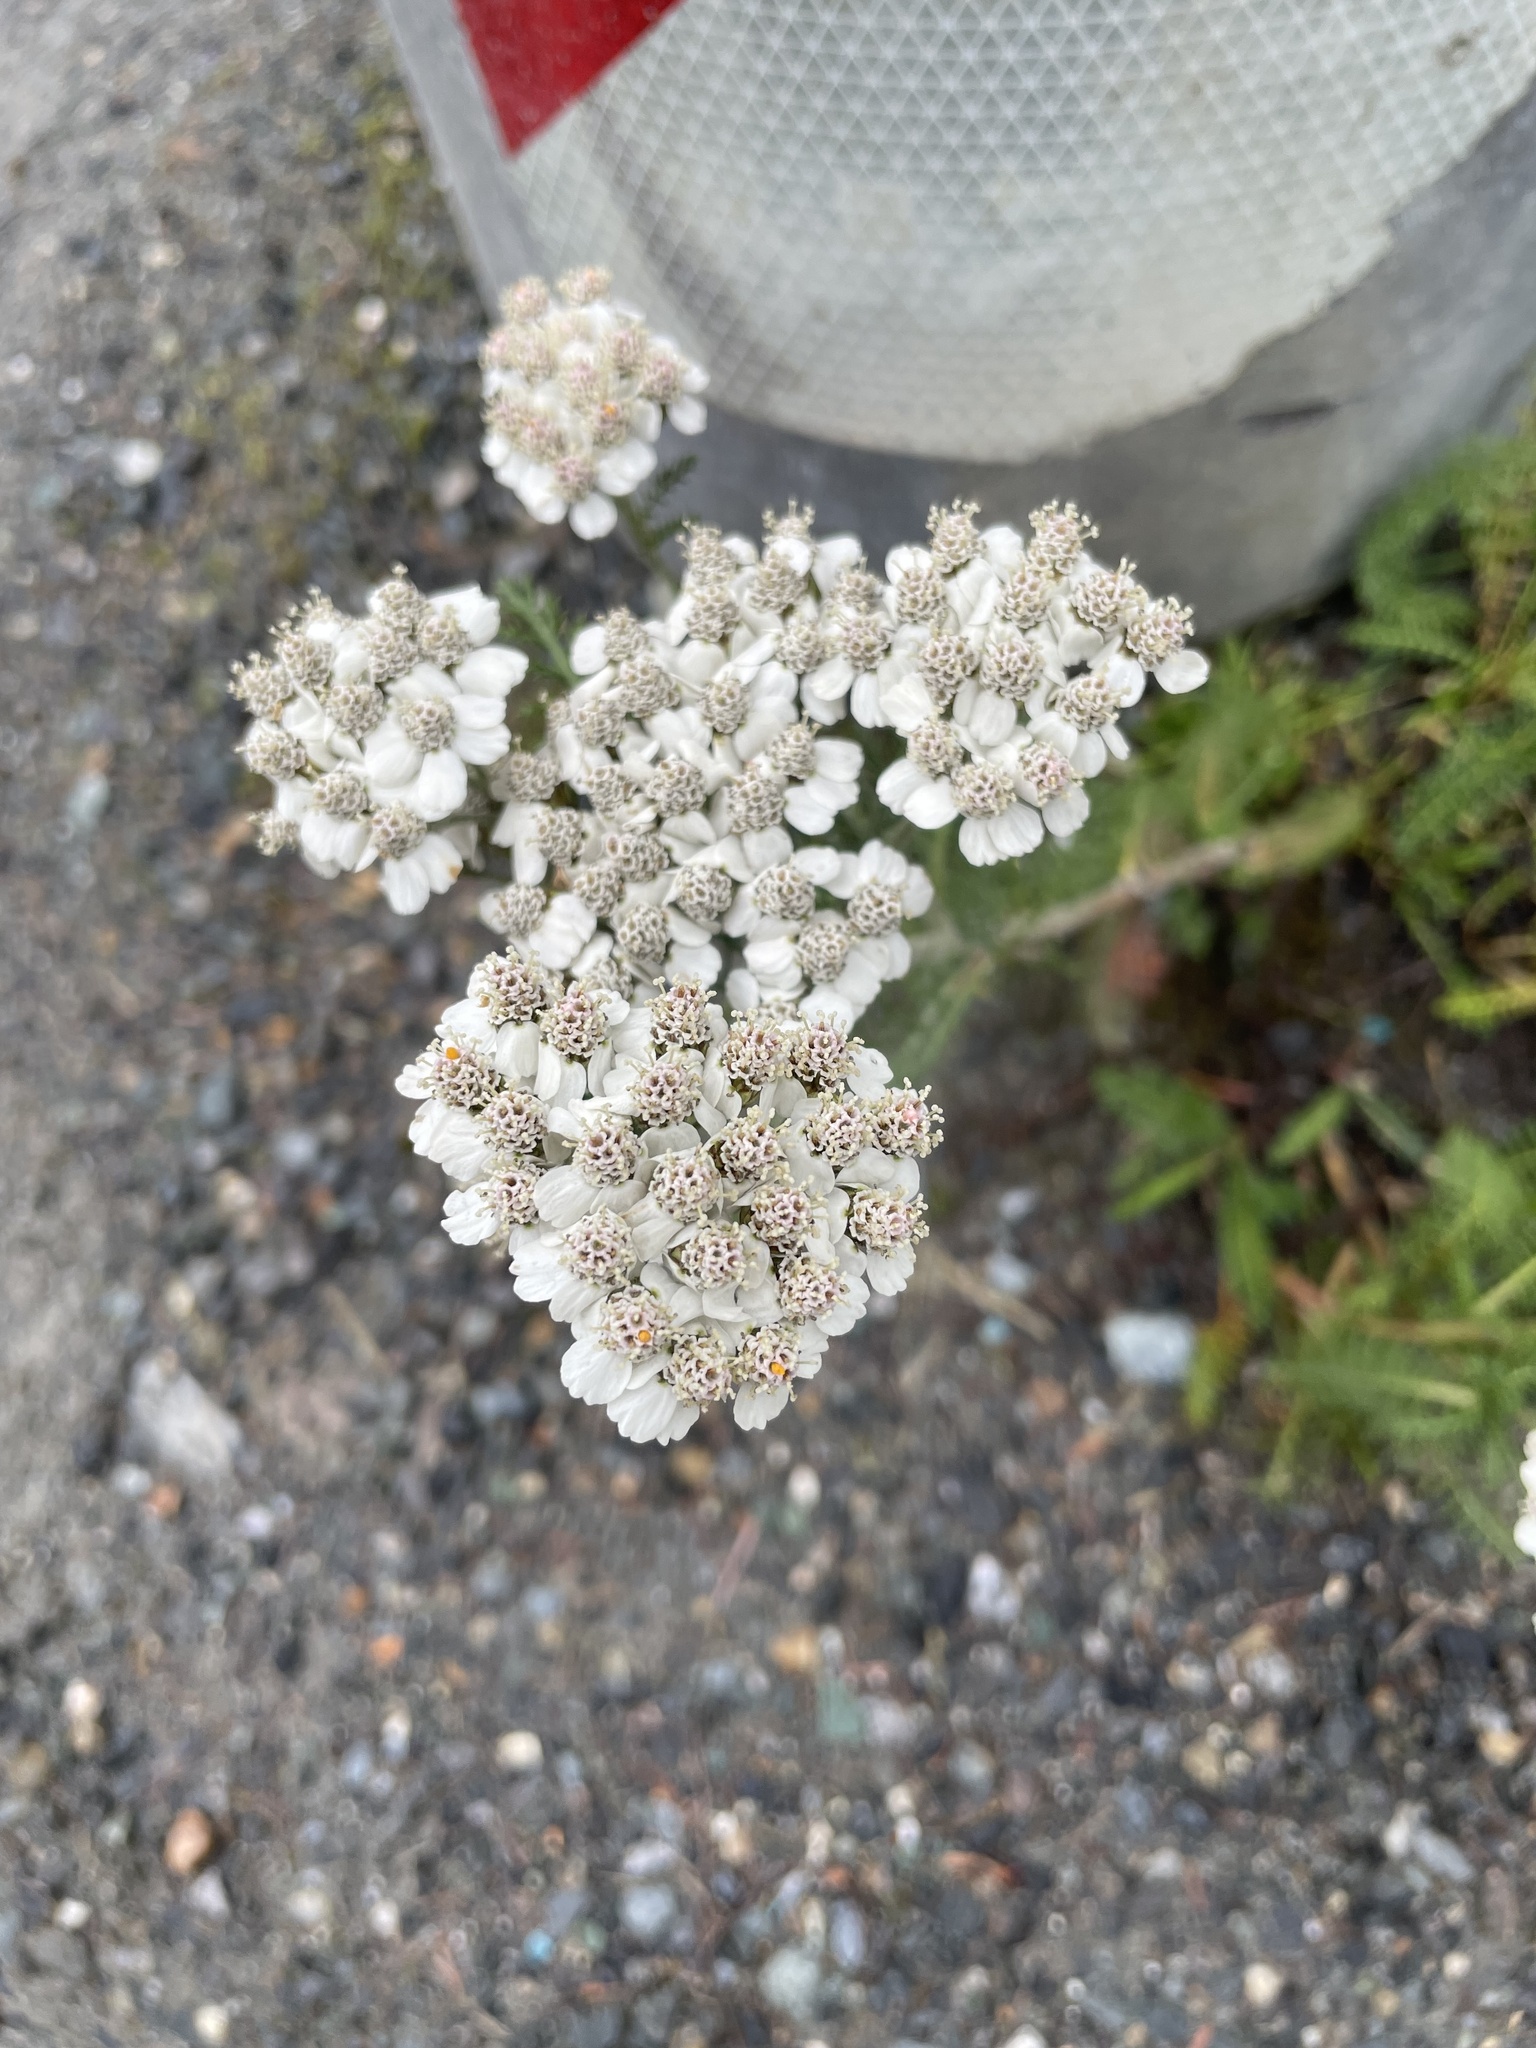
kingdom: Plantae
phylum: Tracheophyta
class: Magnoliopsida
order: Asterales
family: Asteraceae
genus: Achillea
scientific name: Achillea millefolium
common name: Yarrow
